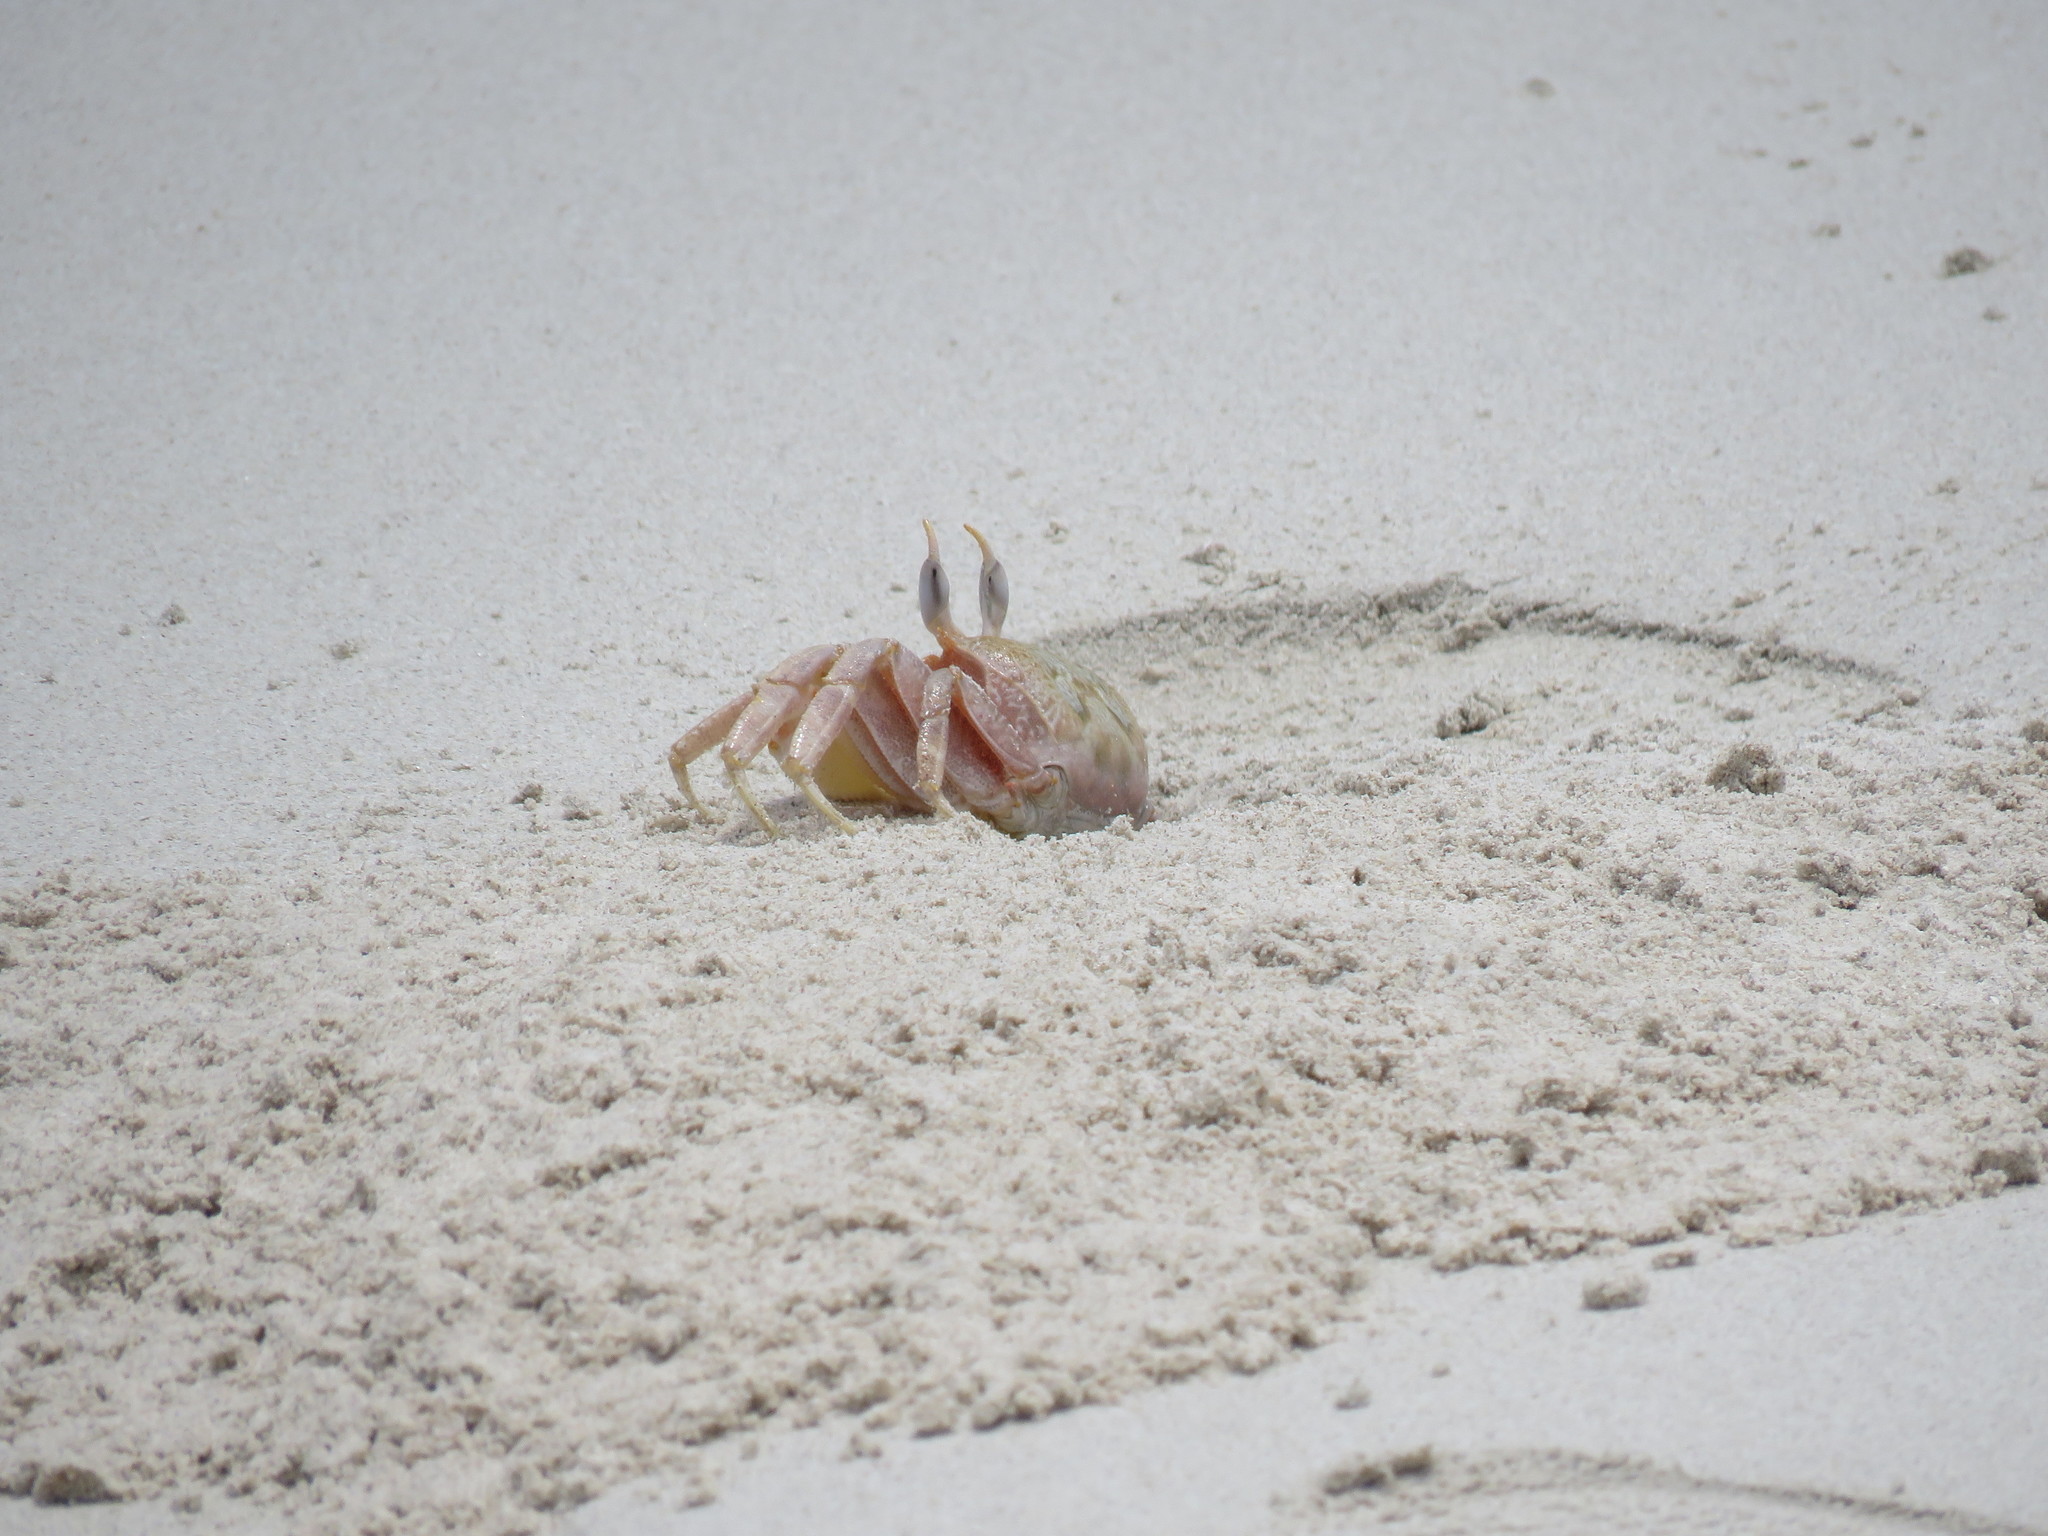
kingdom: Animalia
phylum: Arthropoda
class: Malacostraca
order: Decapoda
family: Ocypodidae
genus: Ocypode
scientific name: Ocypode gaudichaudii
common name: Pacific ghost crab
